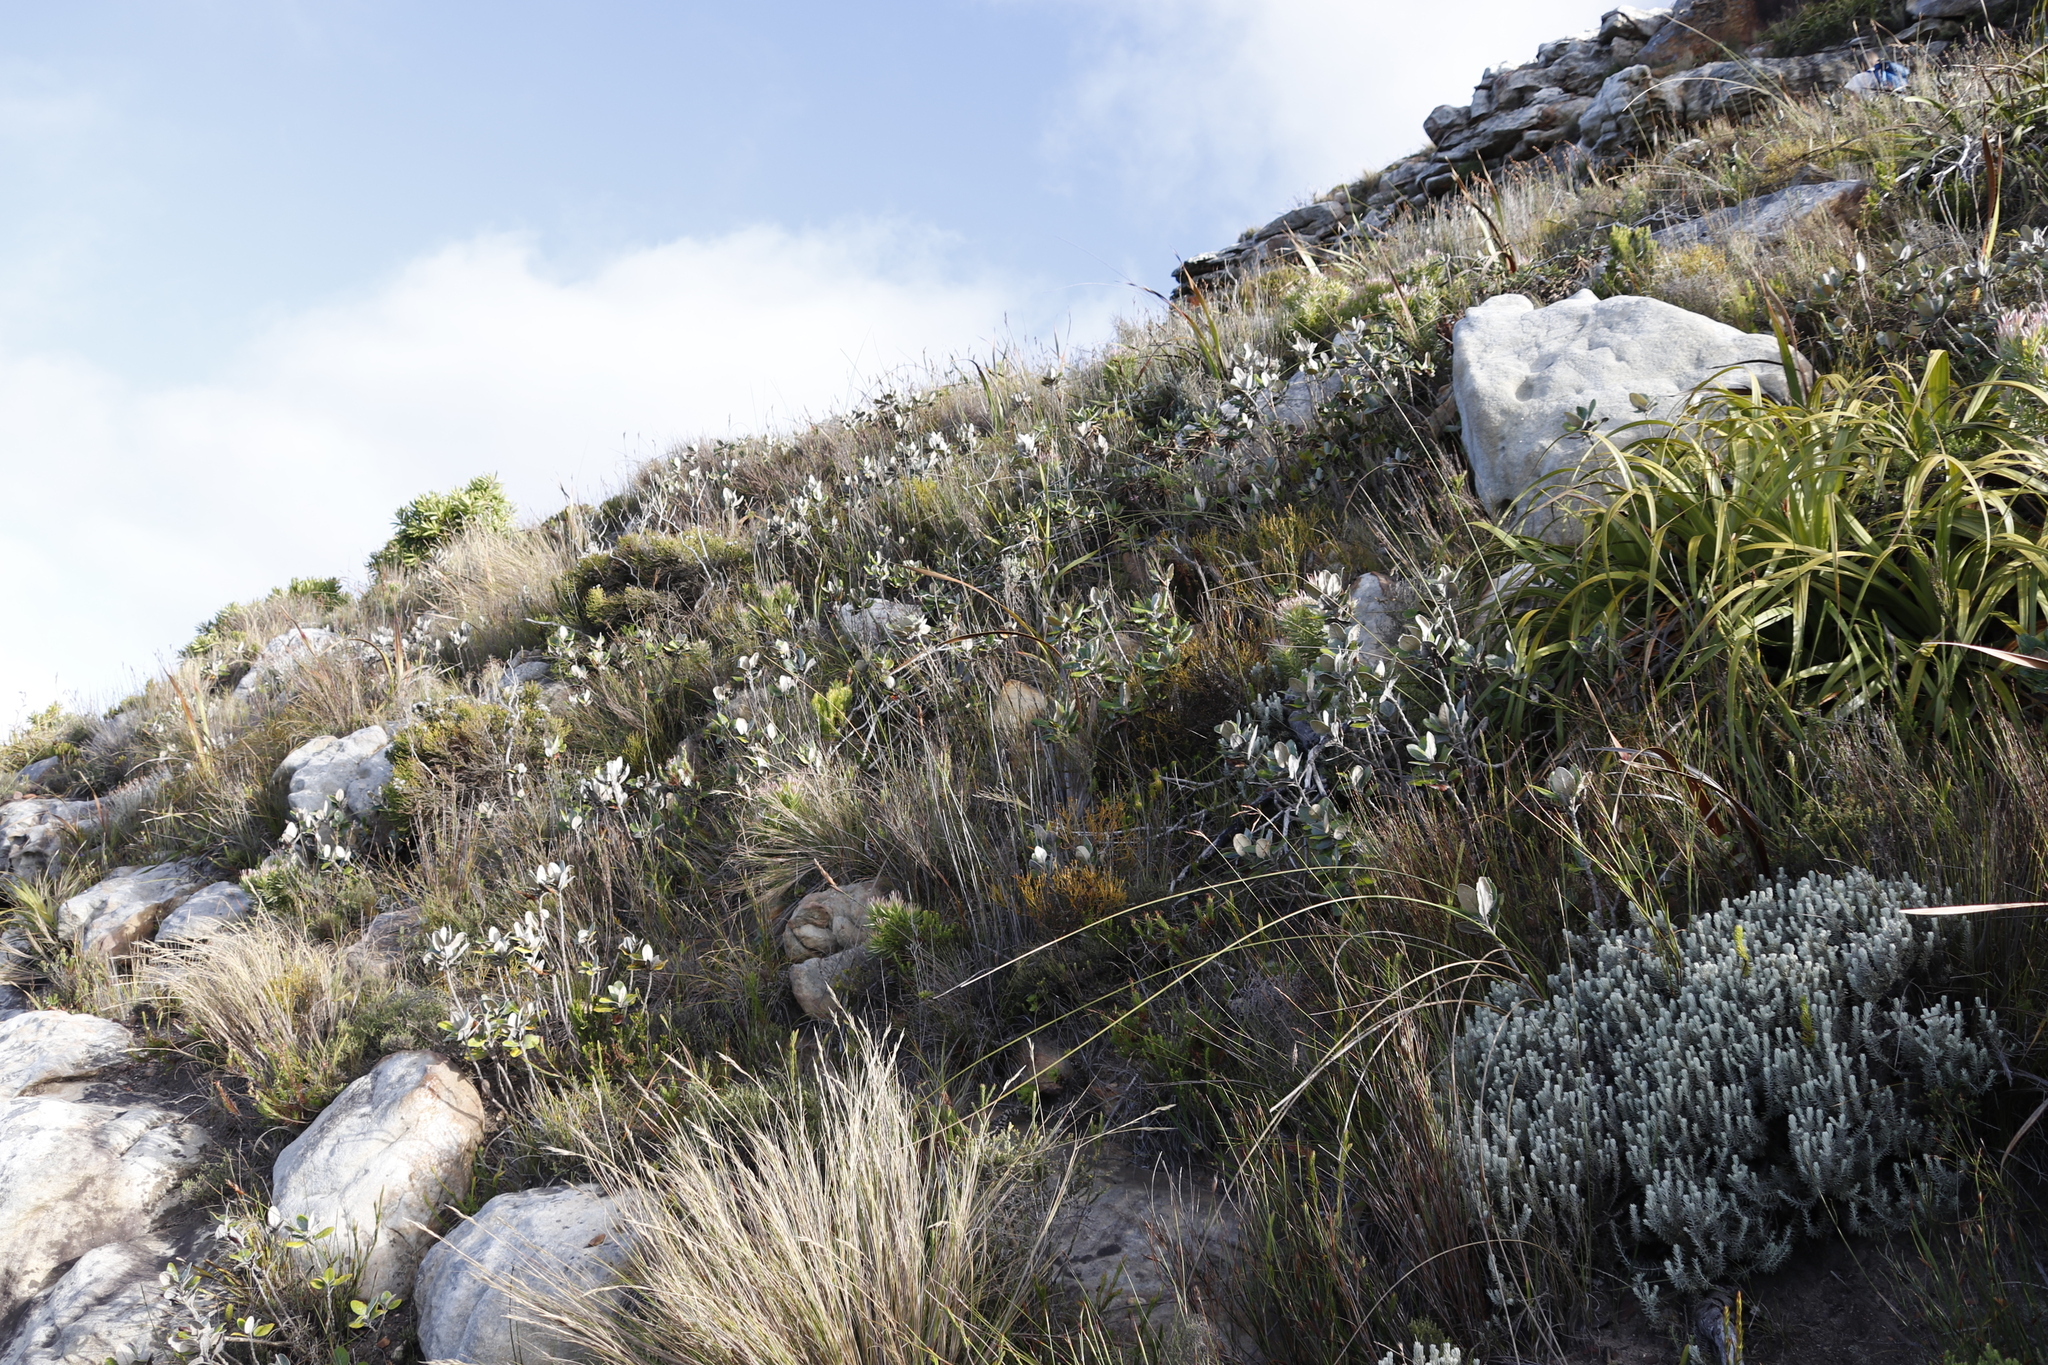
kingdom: Plantae
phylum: Tracheophyta
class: Magnoliopsida
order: Apiales
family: Apiaceae
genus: Hermas
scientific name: Hermas villosa
